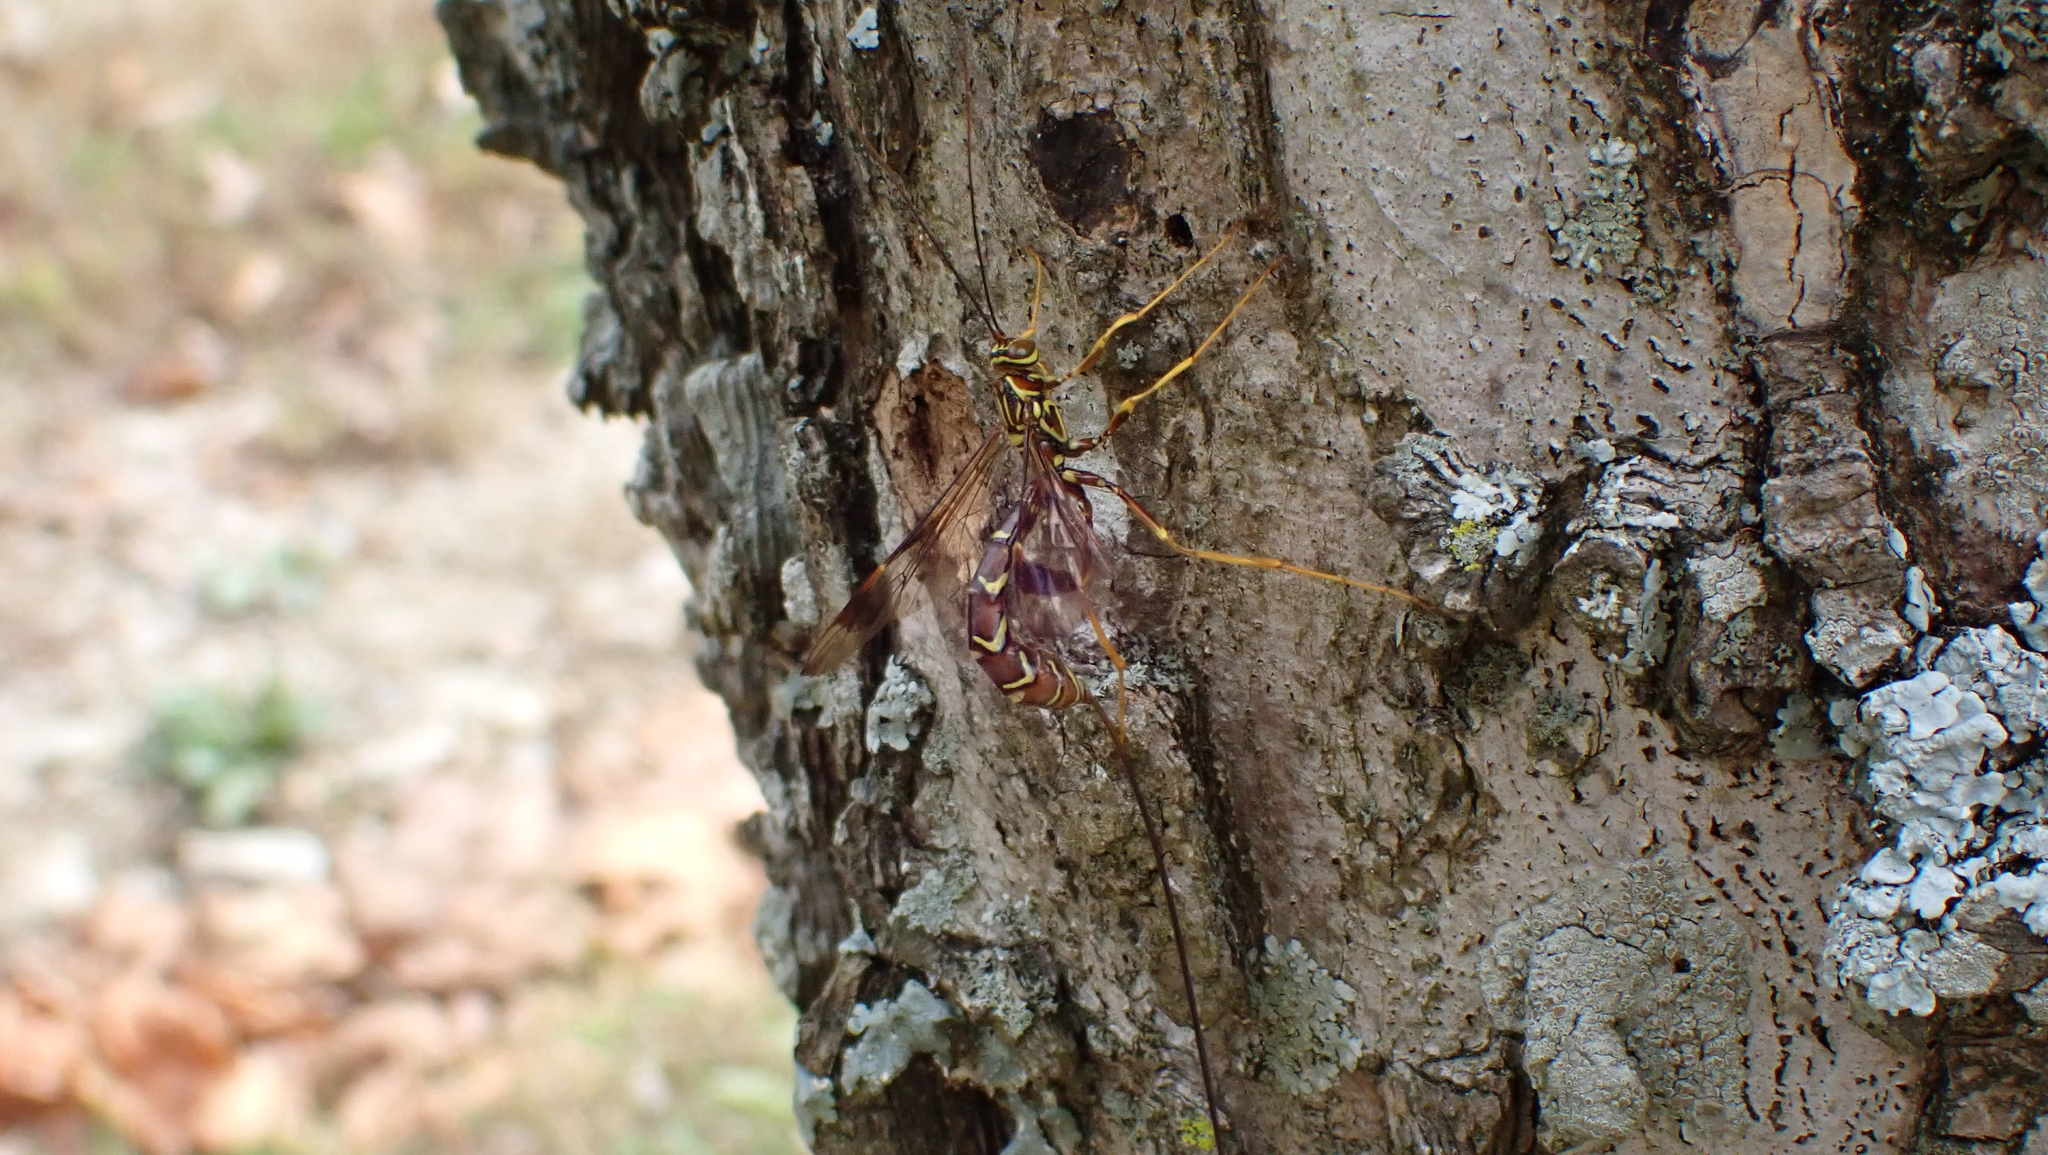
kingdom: Animalia
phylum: Arthropoda
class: Insecta
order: Hymenoptera
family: Ichneumonidae
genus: Megarhyssa
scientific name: Megarhyssa macrura
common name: Long-tailed giant ichneumonid wasp
